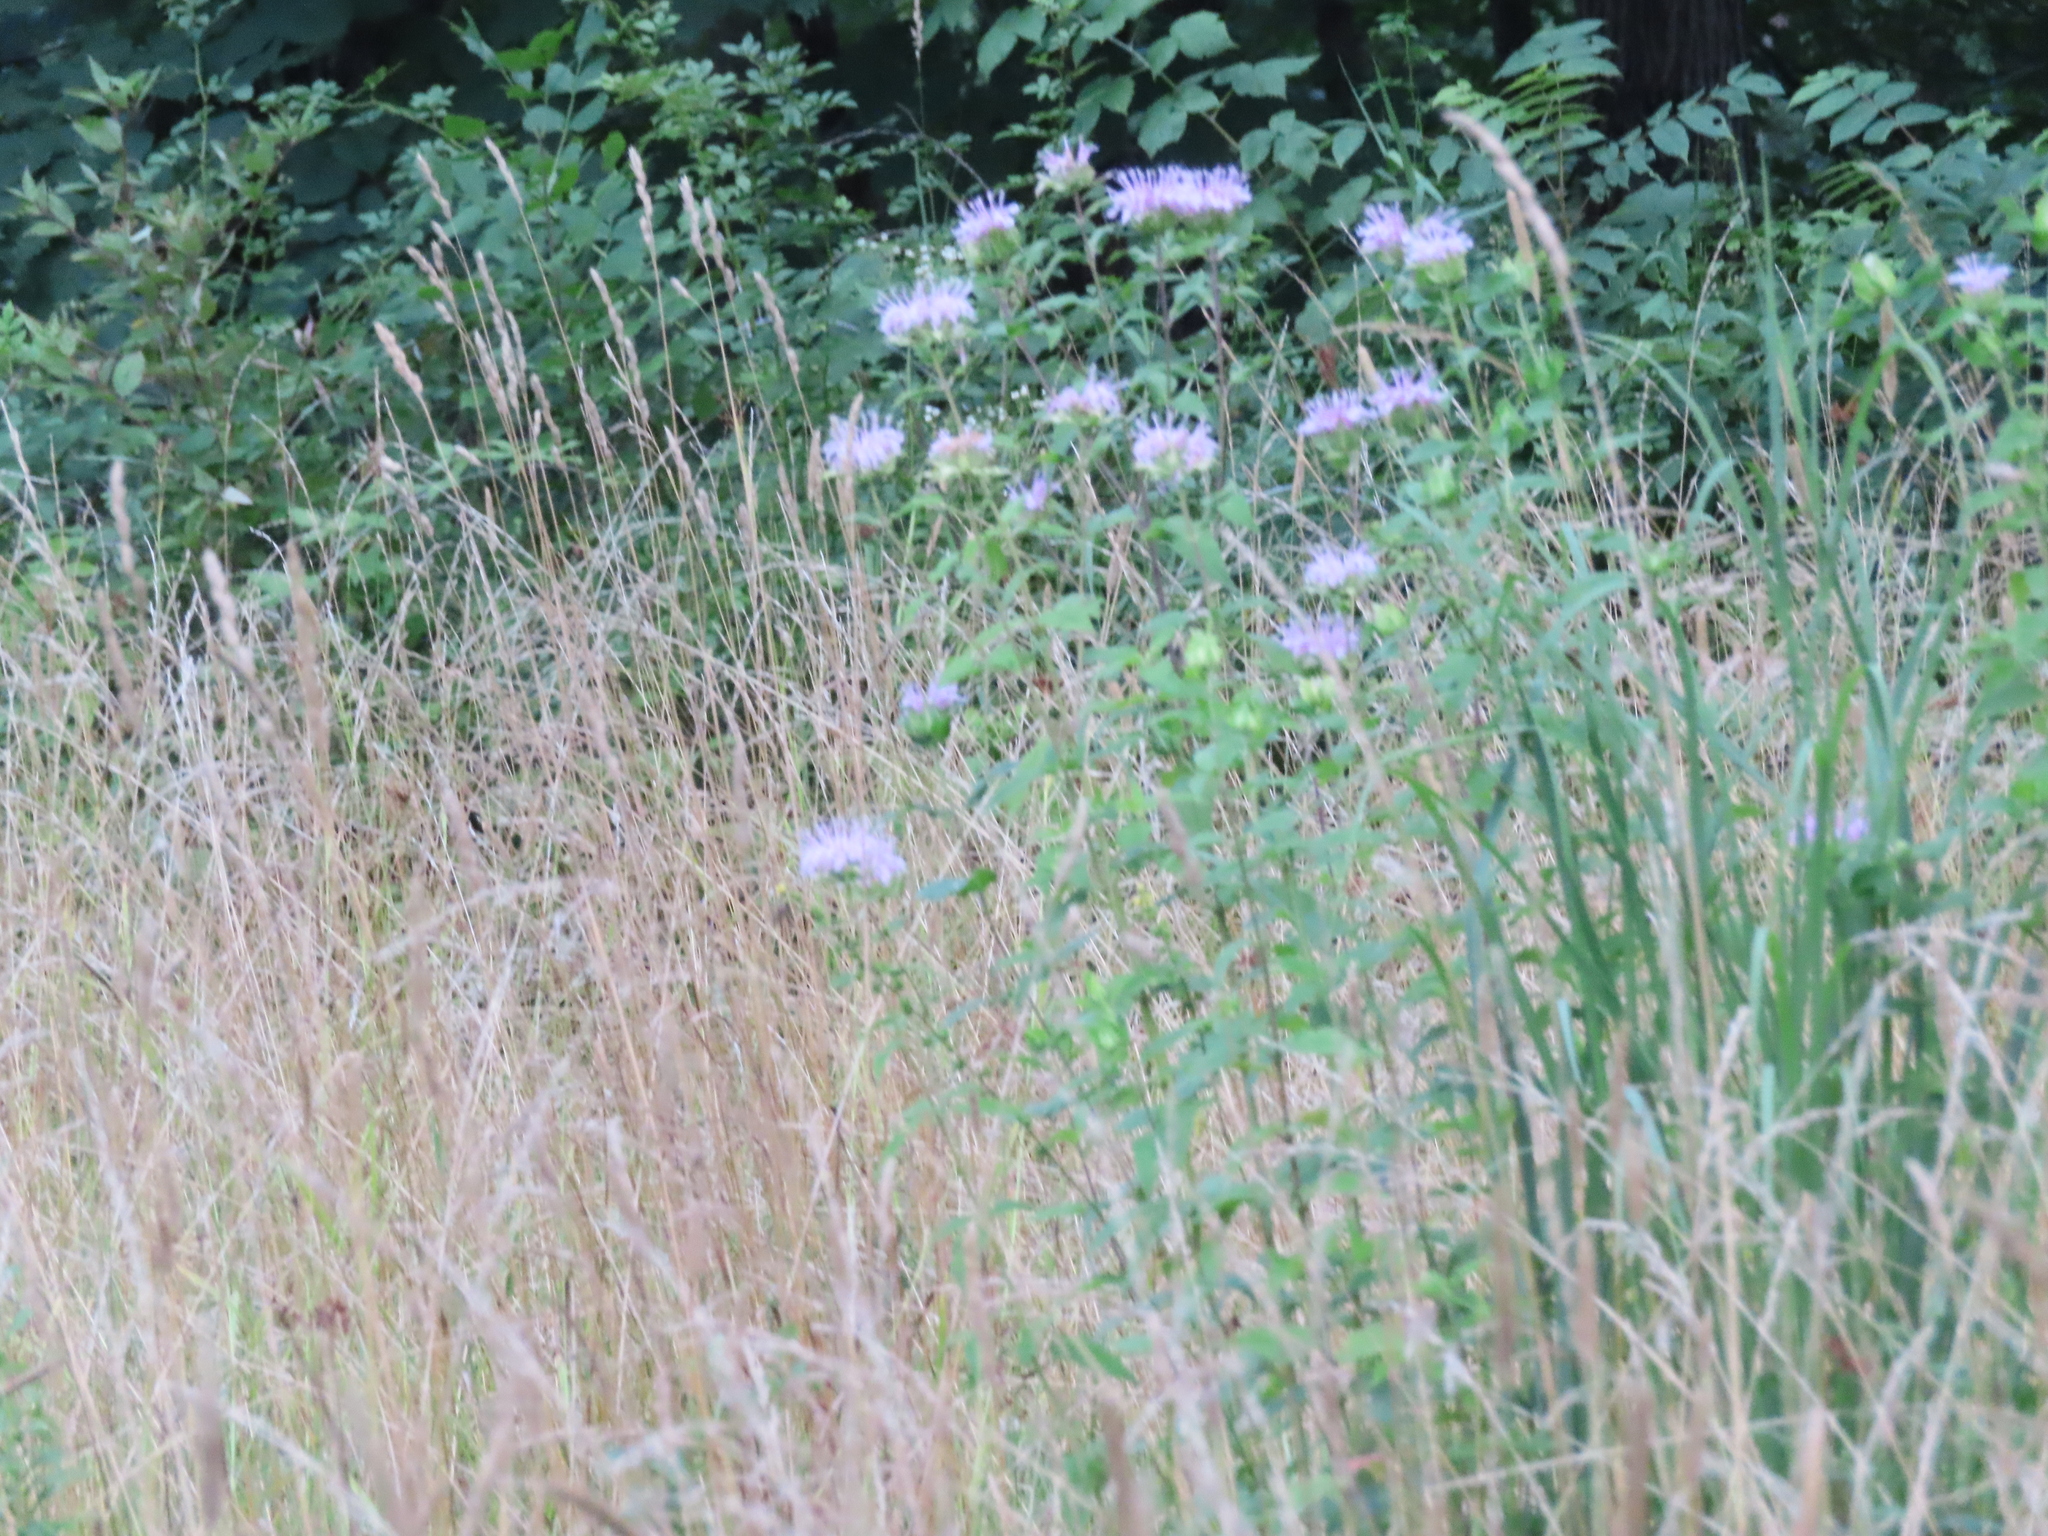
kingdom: Plantae
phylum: Tracheophyta
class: Magnoliopsida
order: Lamiales
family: Lamiaceae
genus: Monarda
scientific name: Monarda fistulosa
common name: Purple beebalm
